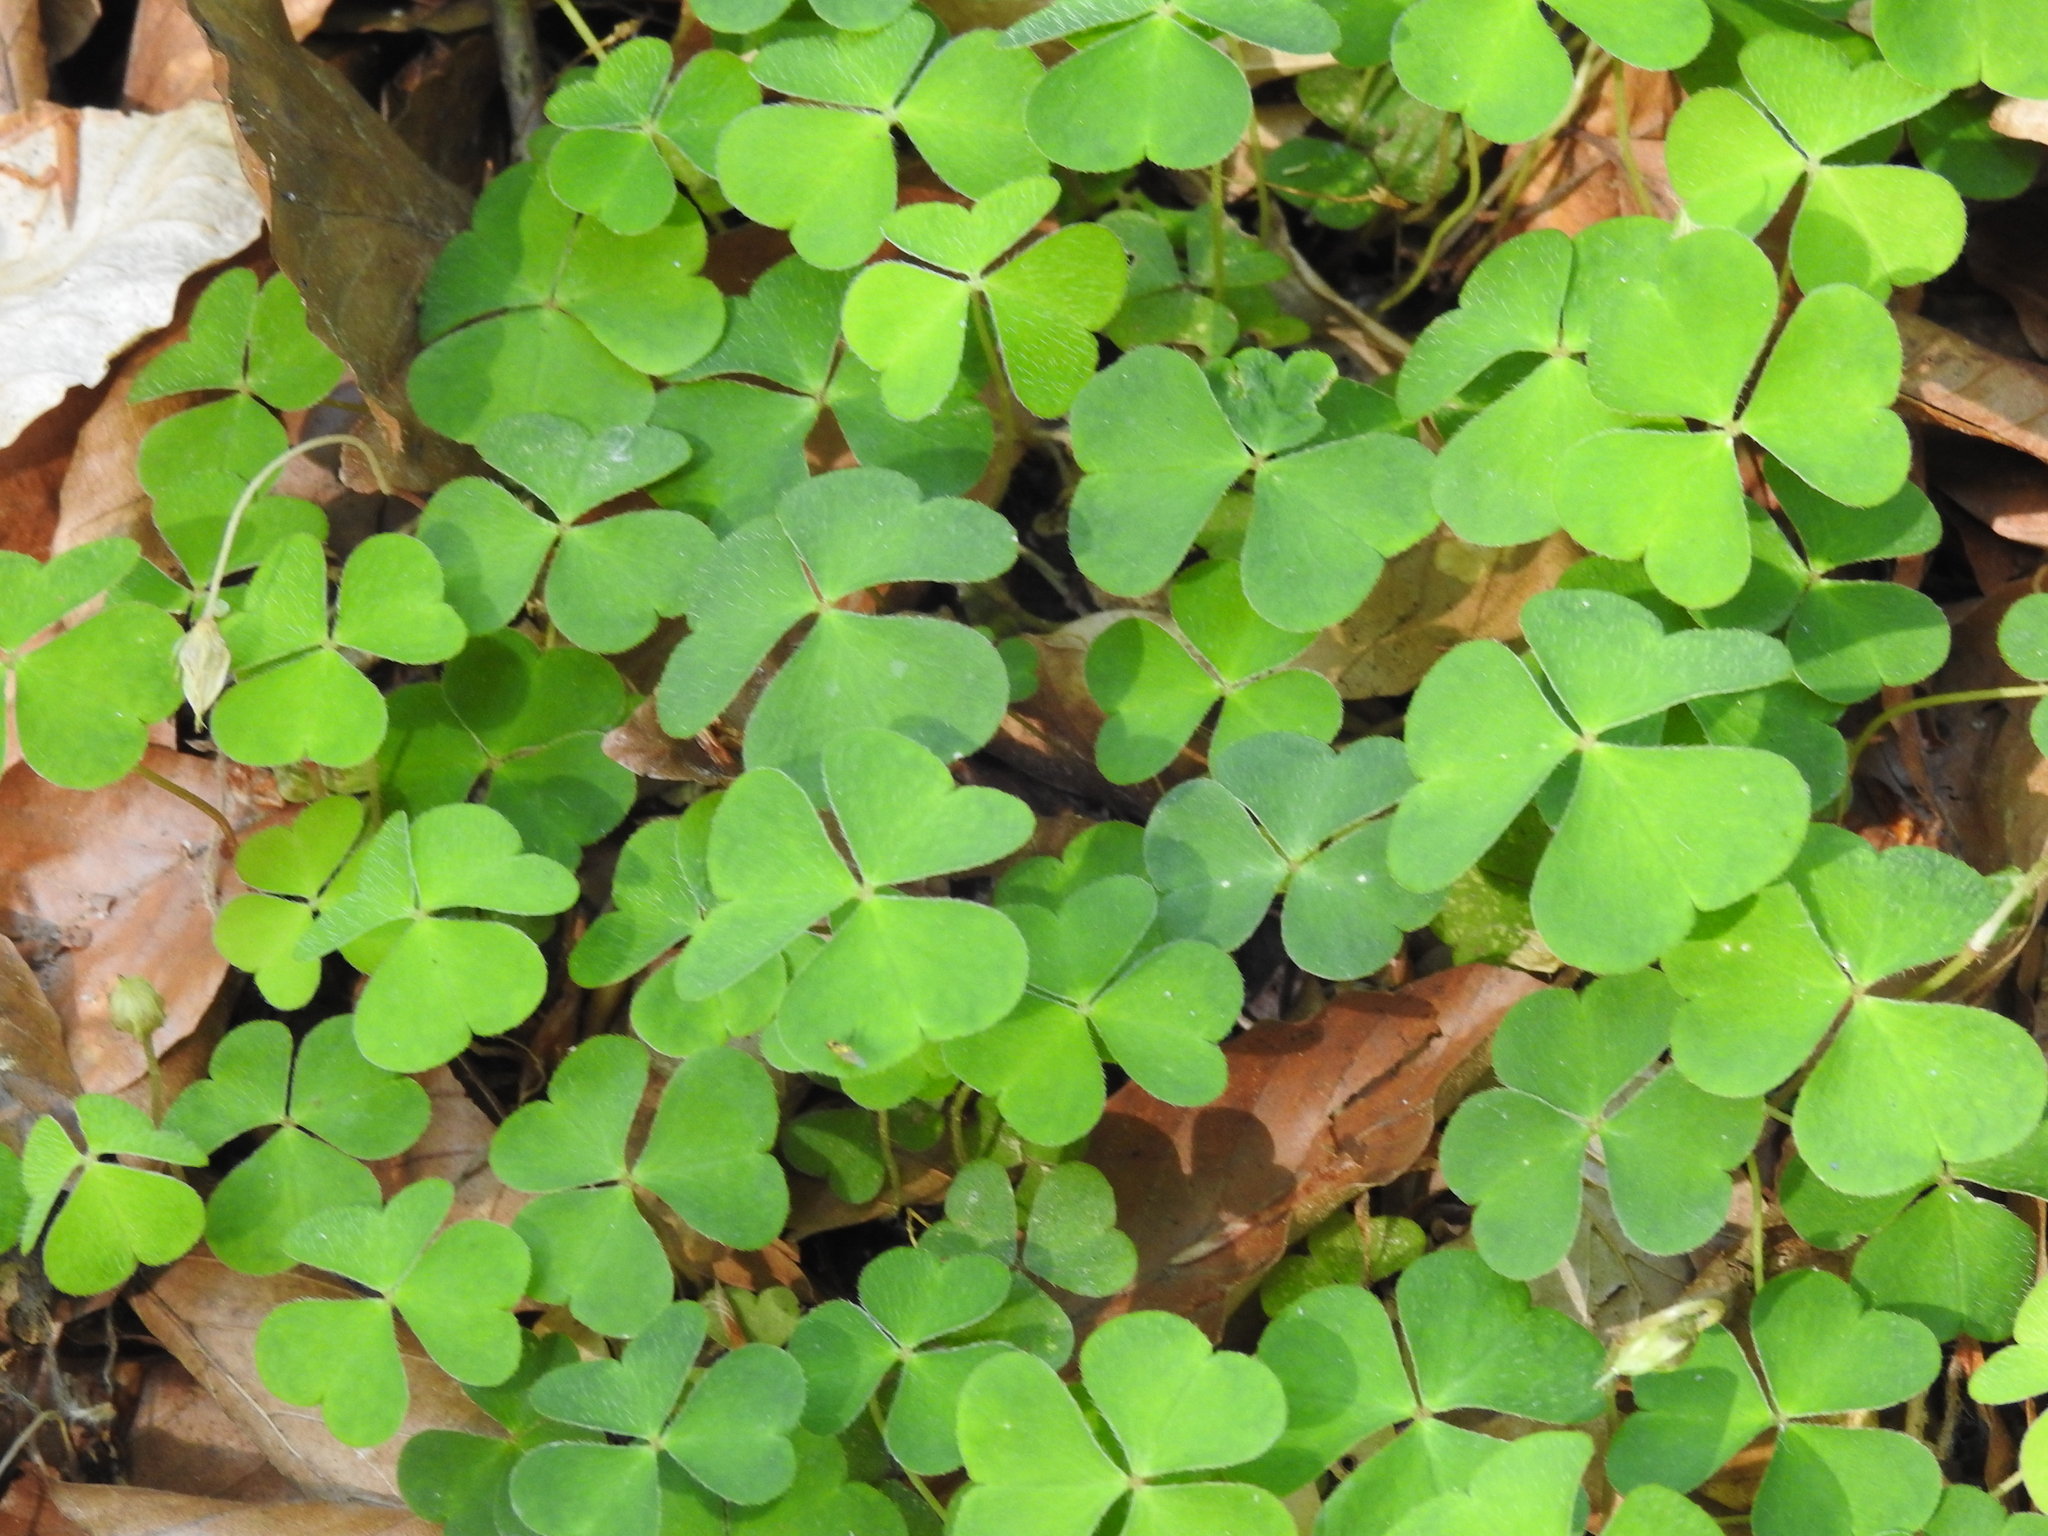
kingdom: Plantae
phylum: Tracheophyta
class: Magnoliopsida
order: Oxalidales
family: Oxalidaceae
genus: Oxalis
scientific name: Oxalis acetosella
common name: Wood-sorrel
